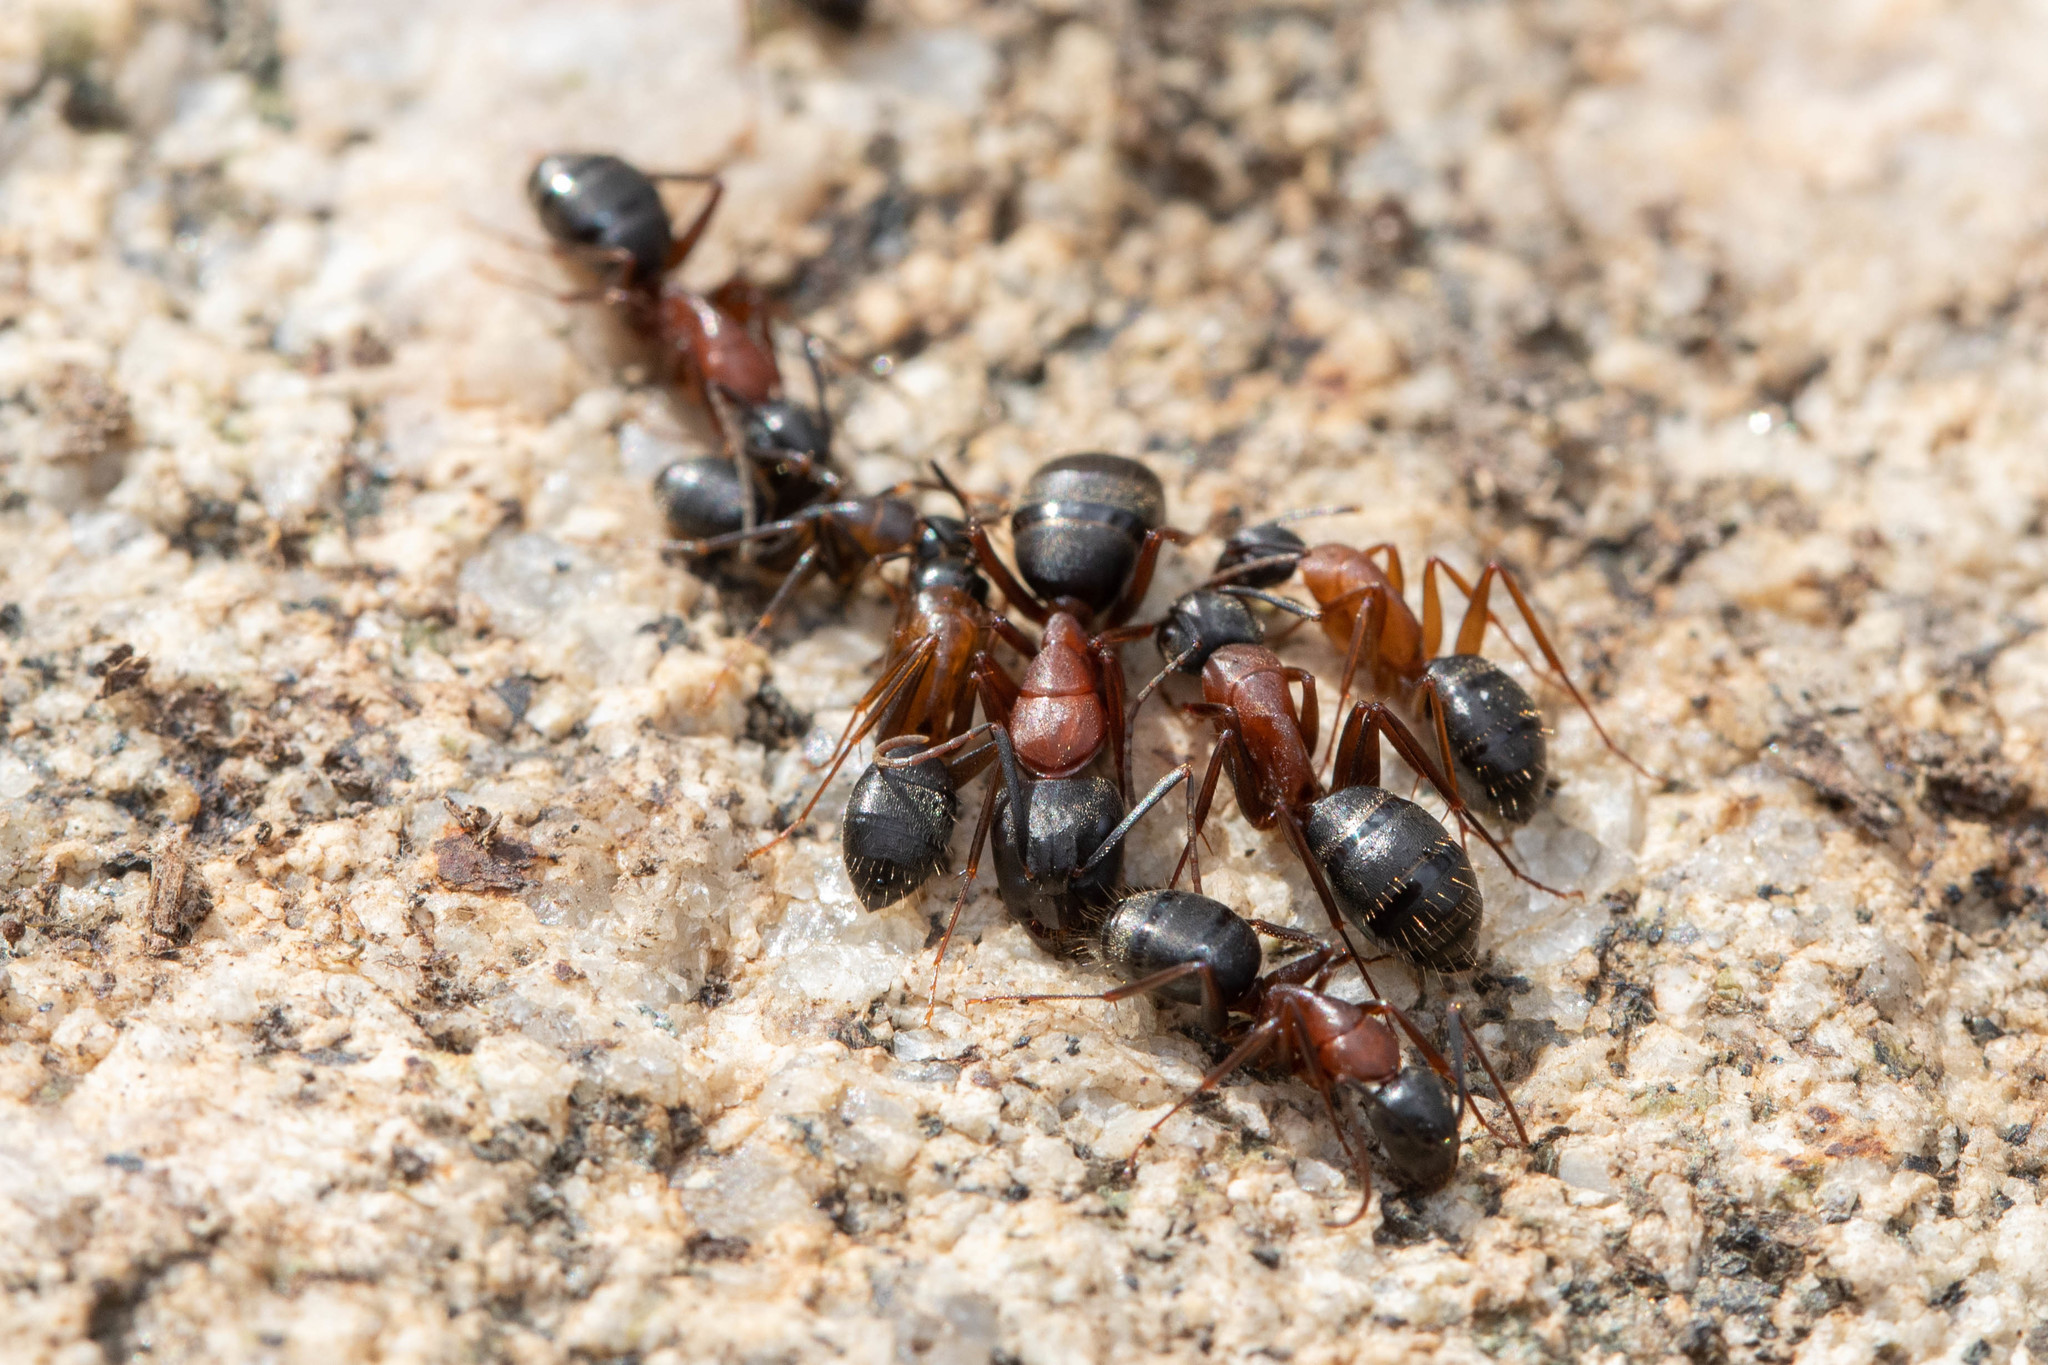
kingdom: Animalia
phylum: Arthropoda
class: Insecta
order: Hymenoptera
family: Formicidae
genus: Camponotus
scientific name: Camponotus vicinus
